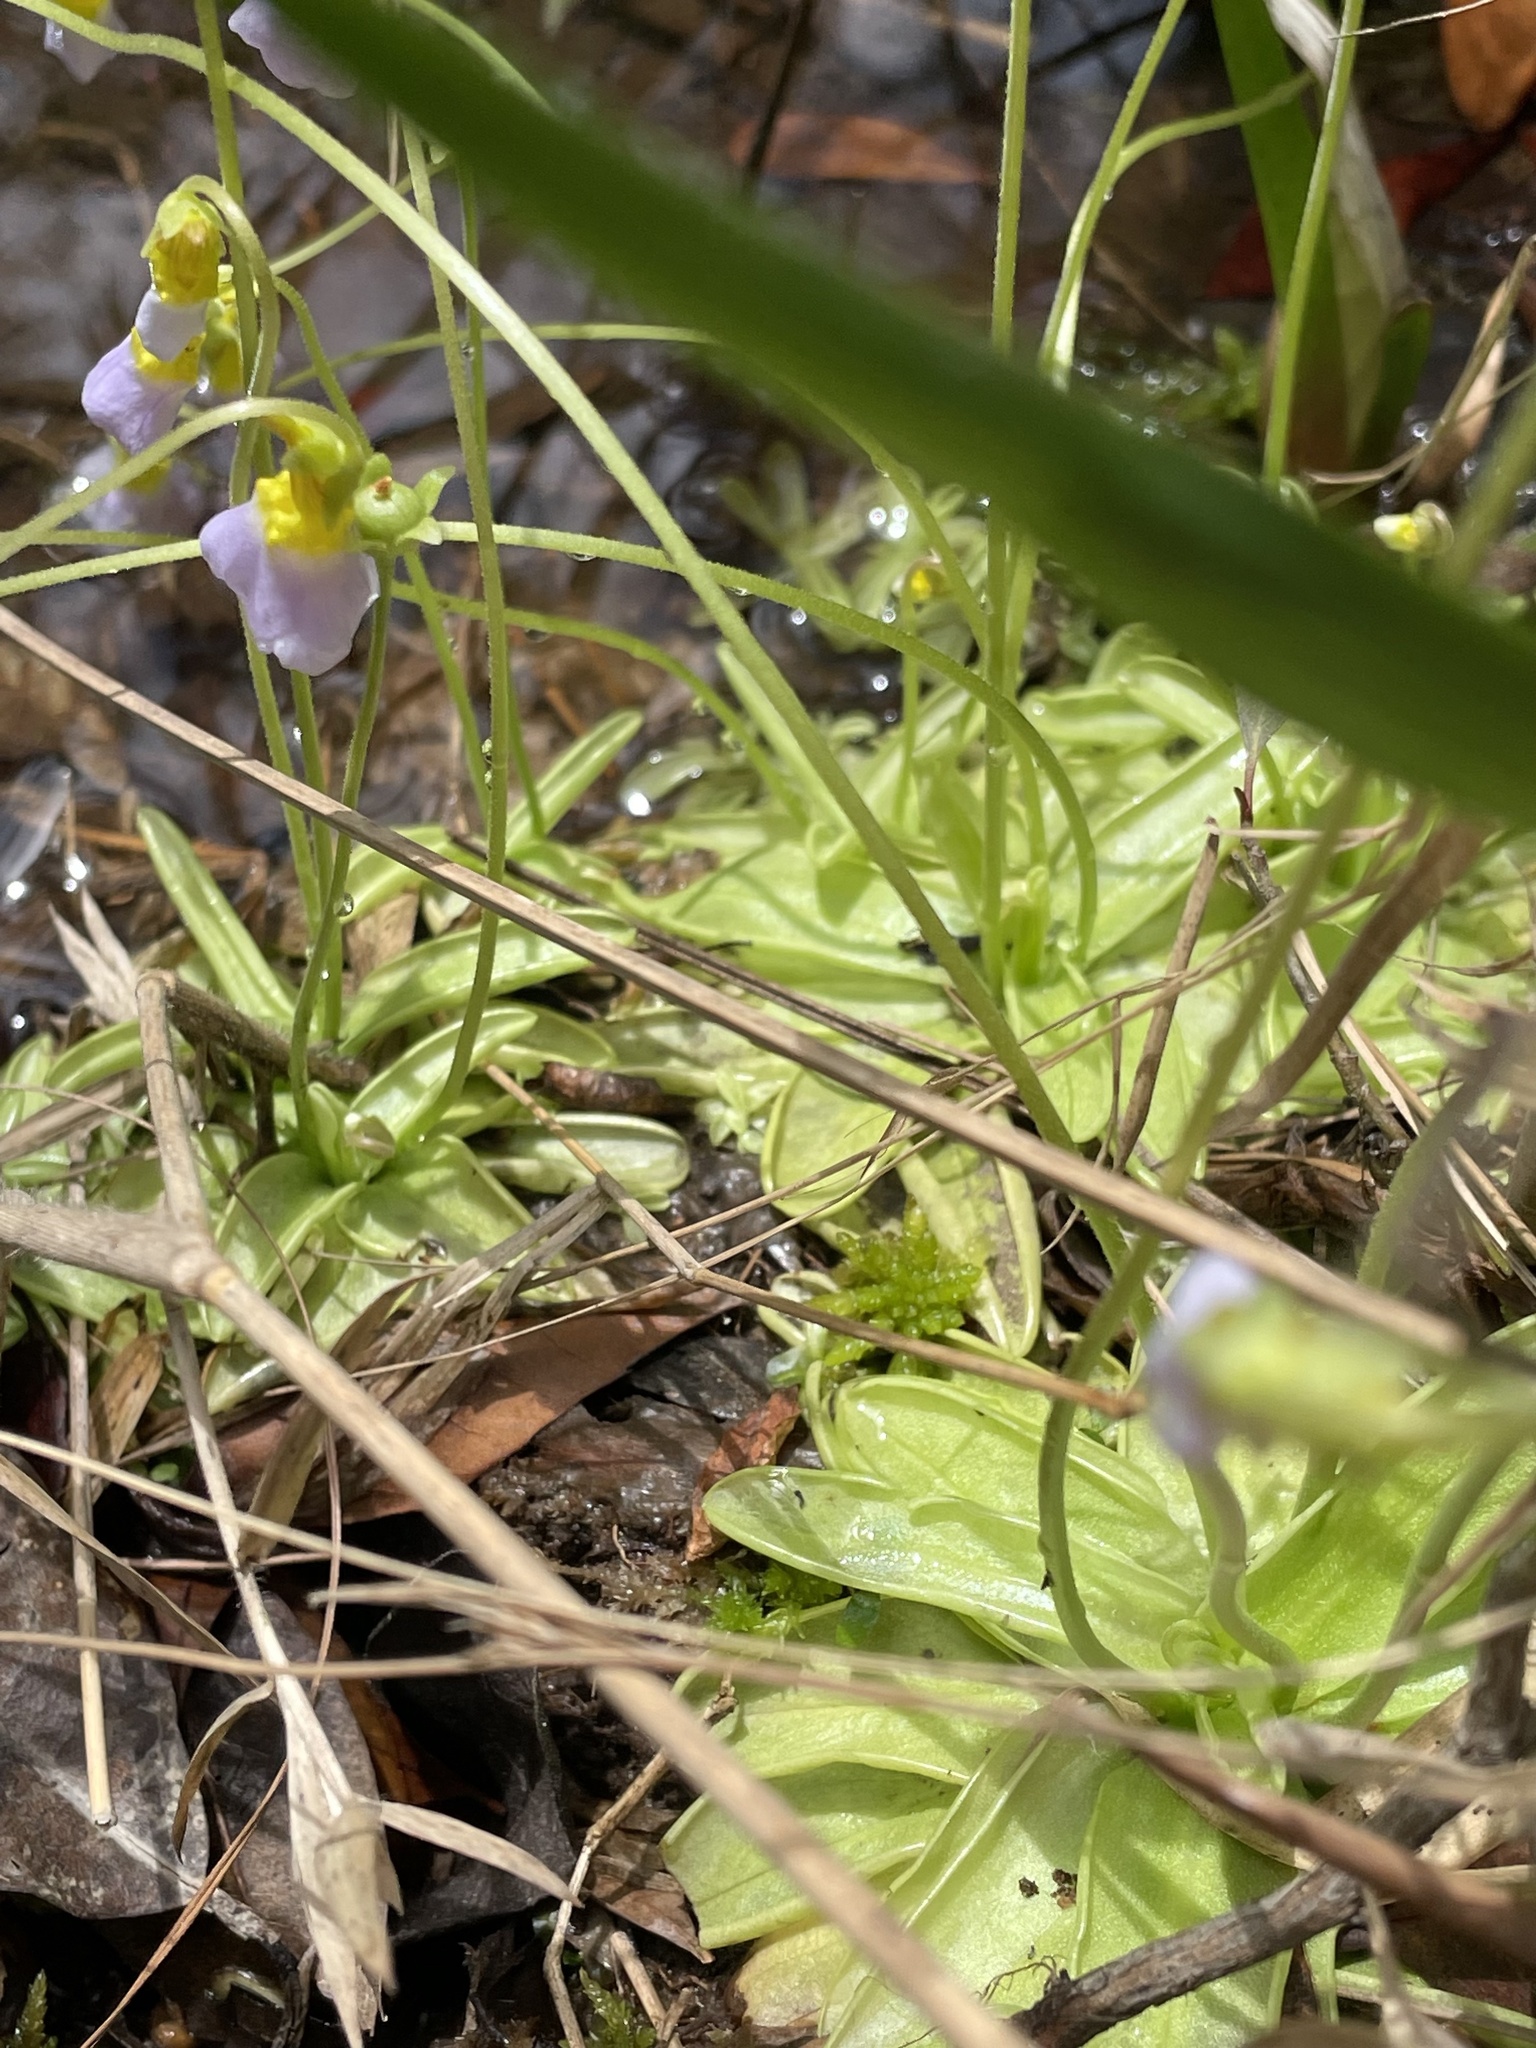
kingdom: Plantae
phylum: Tracheophyta
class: Magnoliopsida
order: Lamiales
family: Lentibulariaceae
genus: Pinguicula
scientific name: Pinguicula primuliflora
